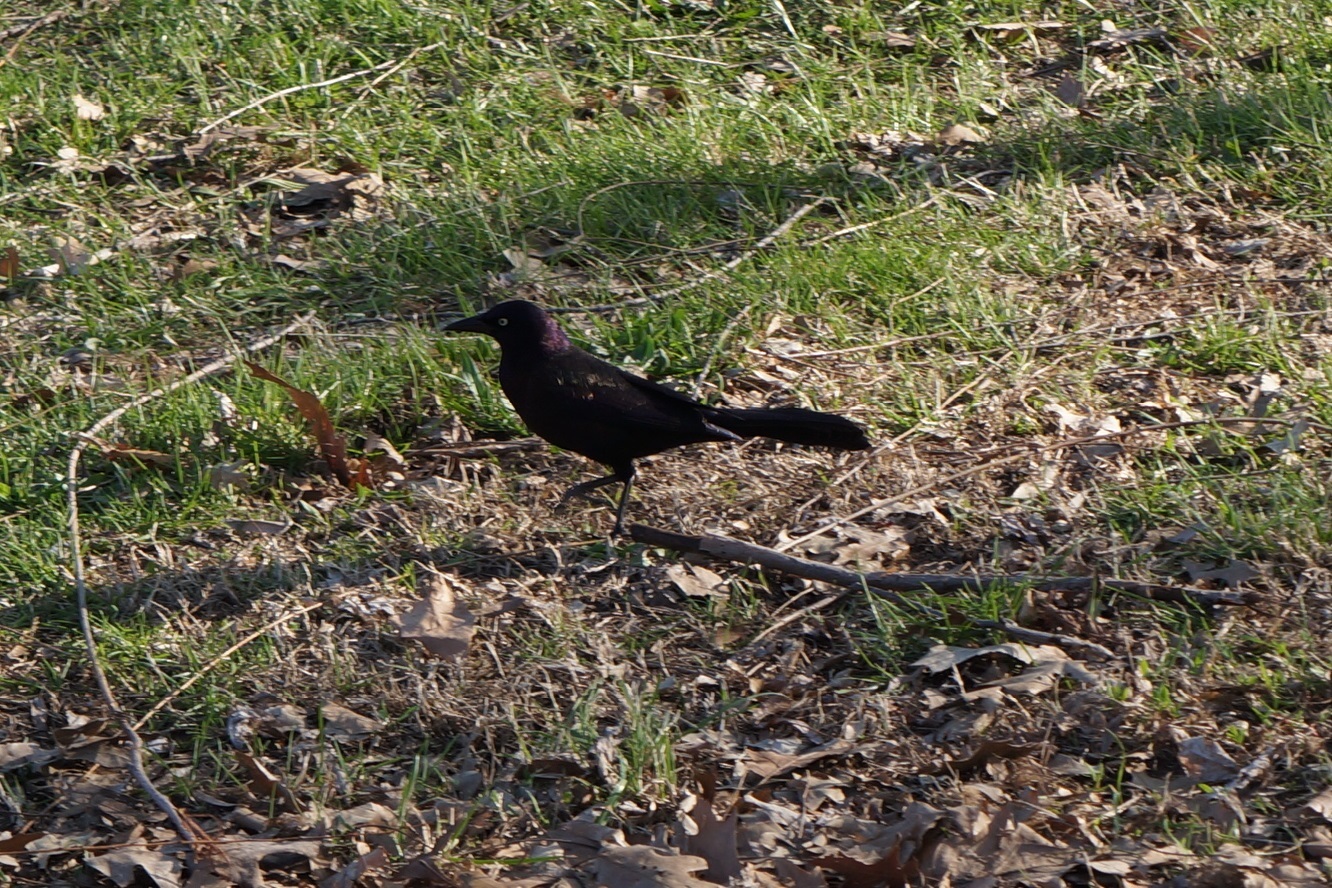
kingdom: Animalia
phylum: Chordata
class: Aves
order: Passeriformes
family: Icteridae
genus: Quiscalus
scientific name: Quiscalus quiscula
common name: Common grackle
